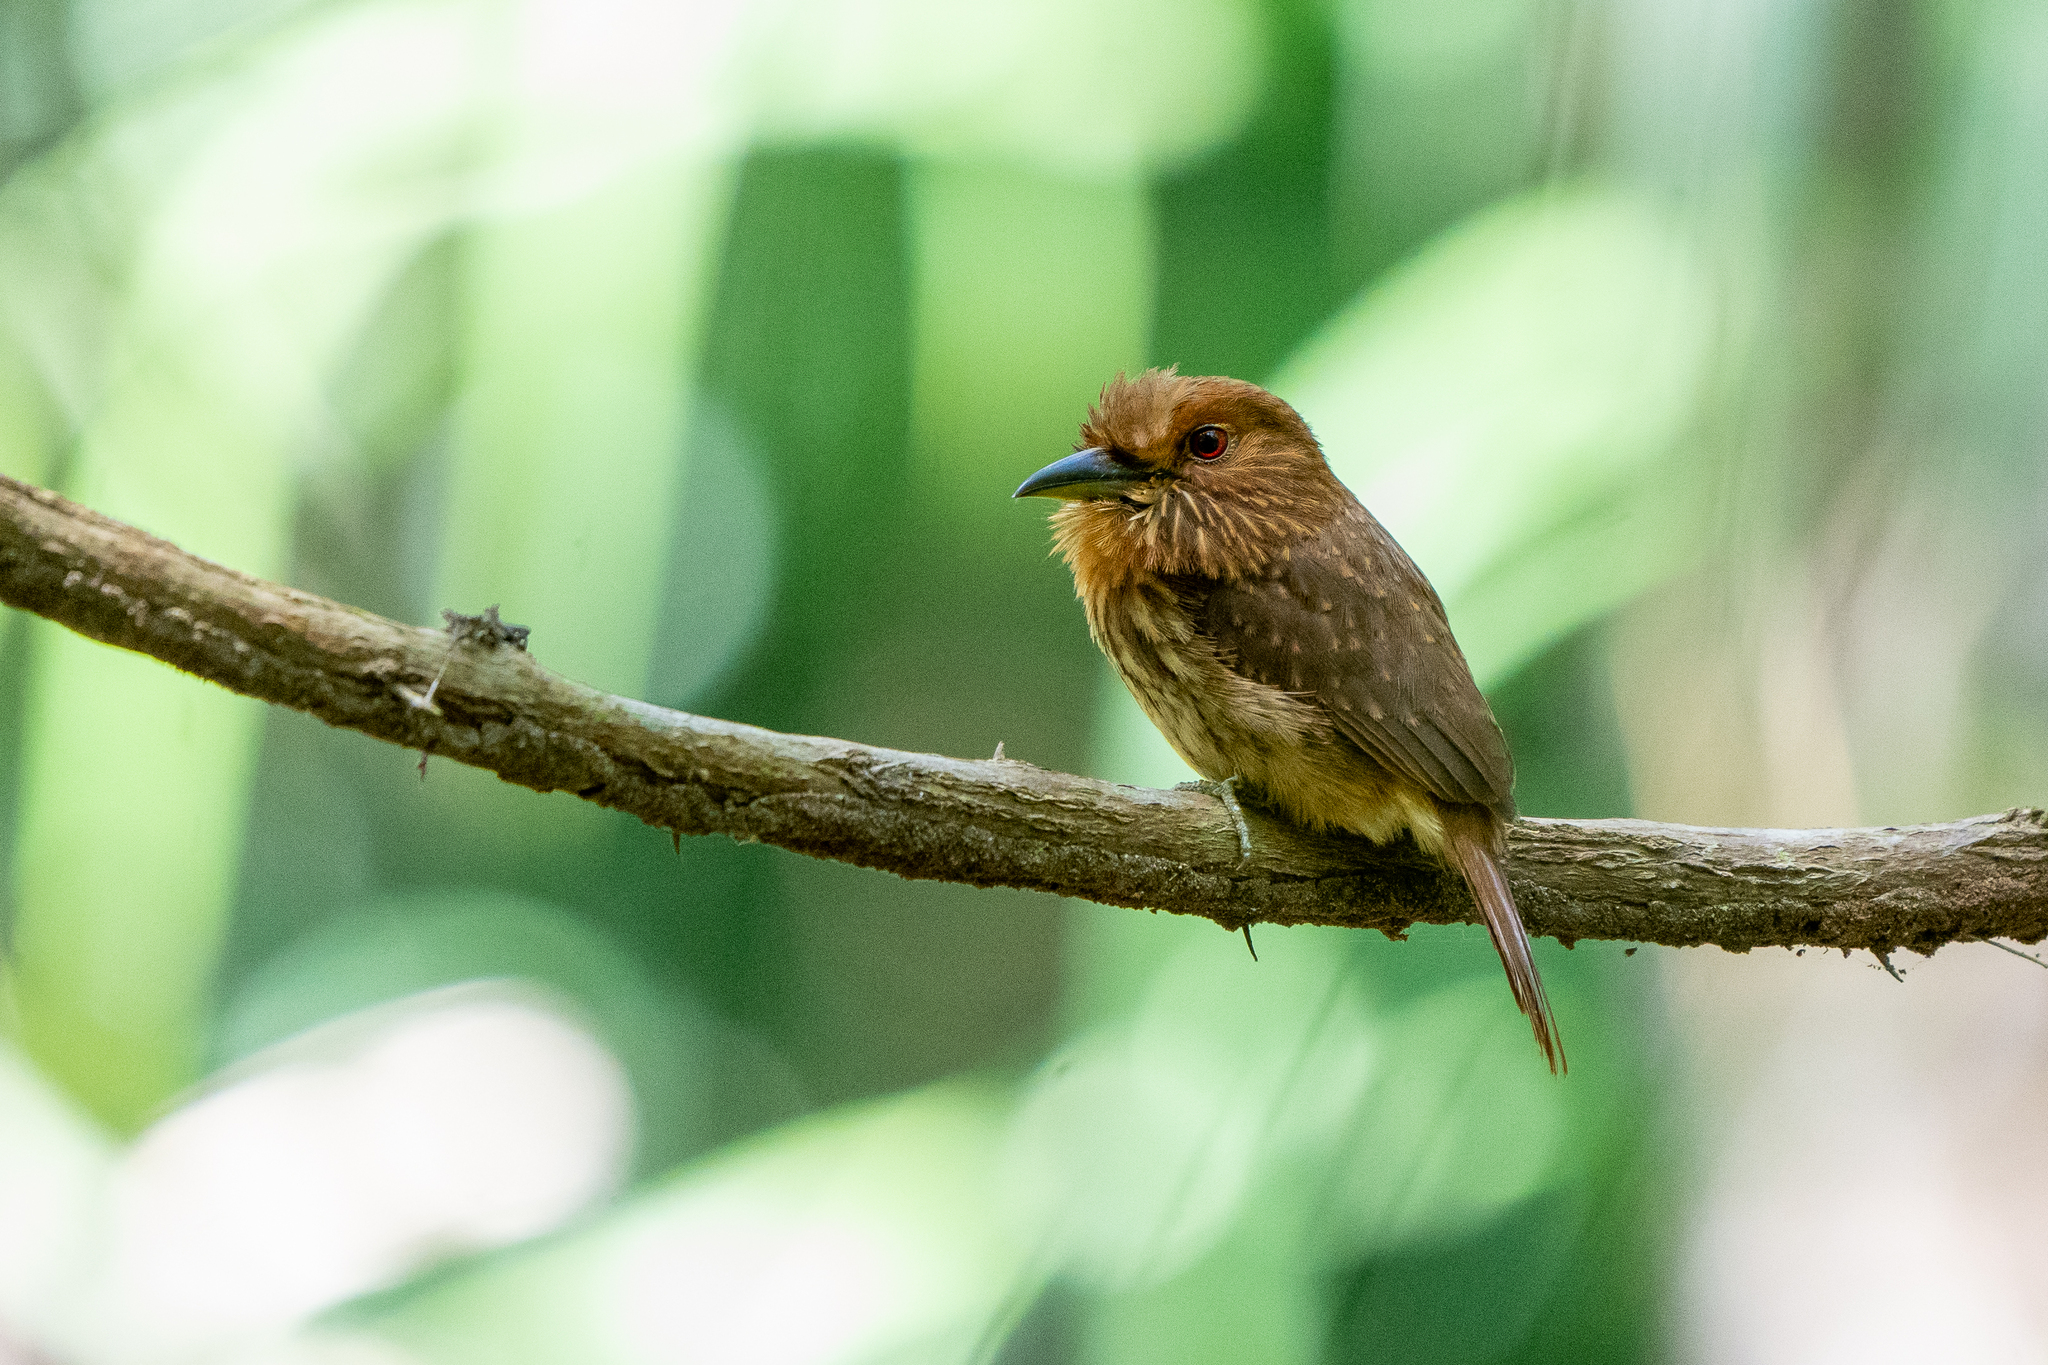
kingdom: Animalia
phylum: Chordata
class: Aves
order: Piciformes
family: Bucconidae
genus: Malacoptila
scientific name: Malacoptila panamensis
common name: White-whiskered puffbird
